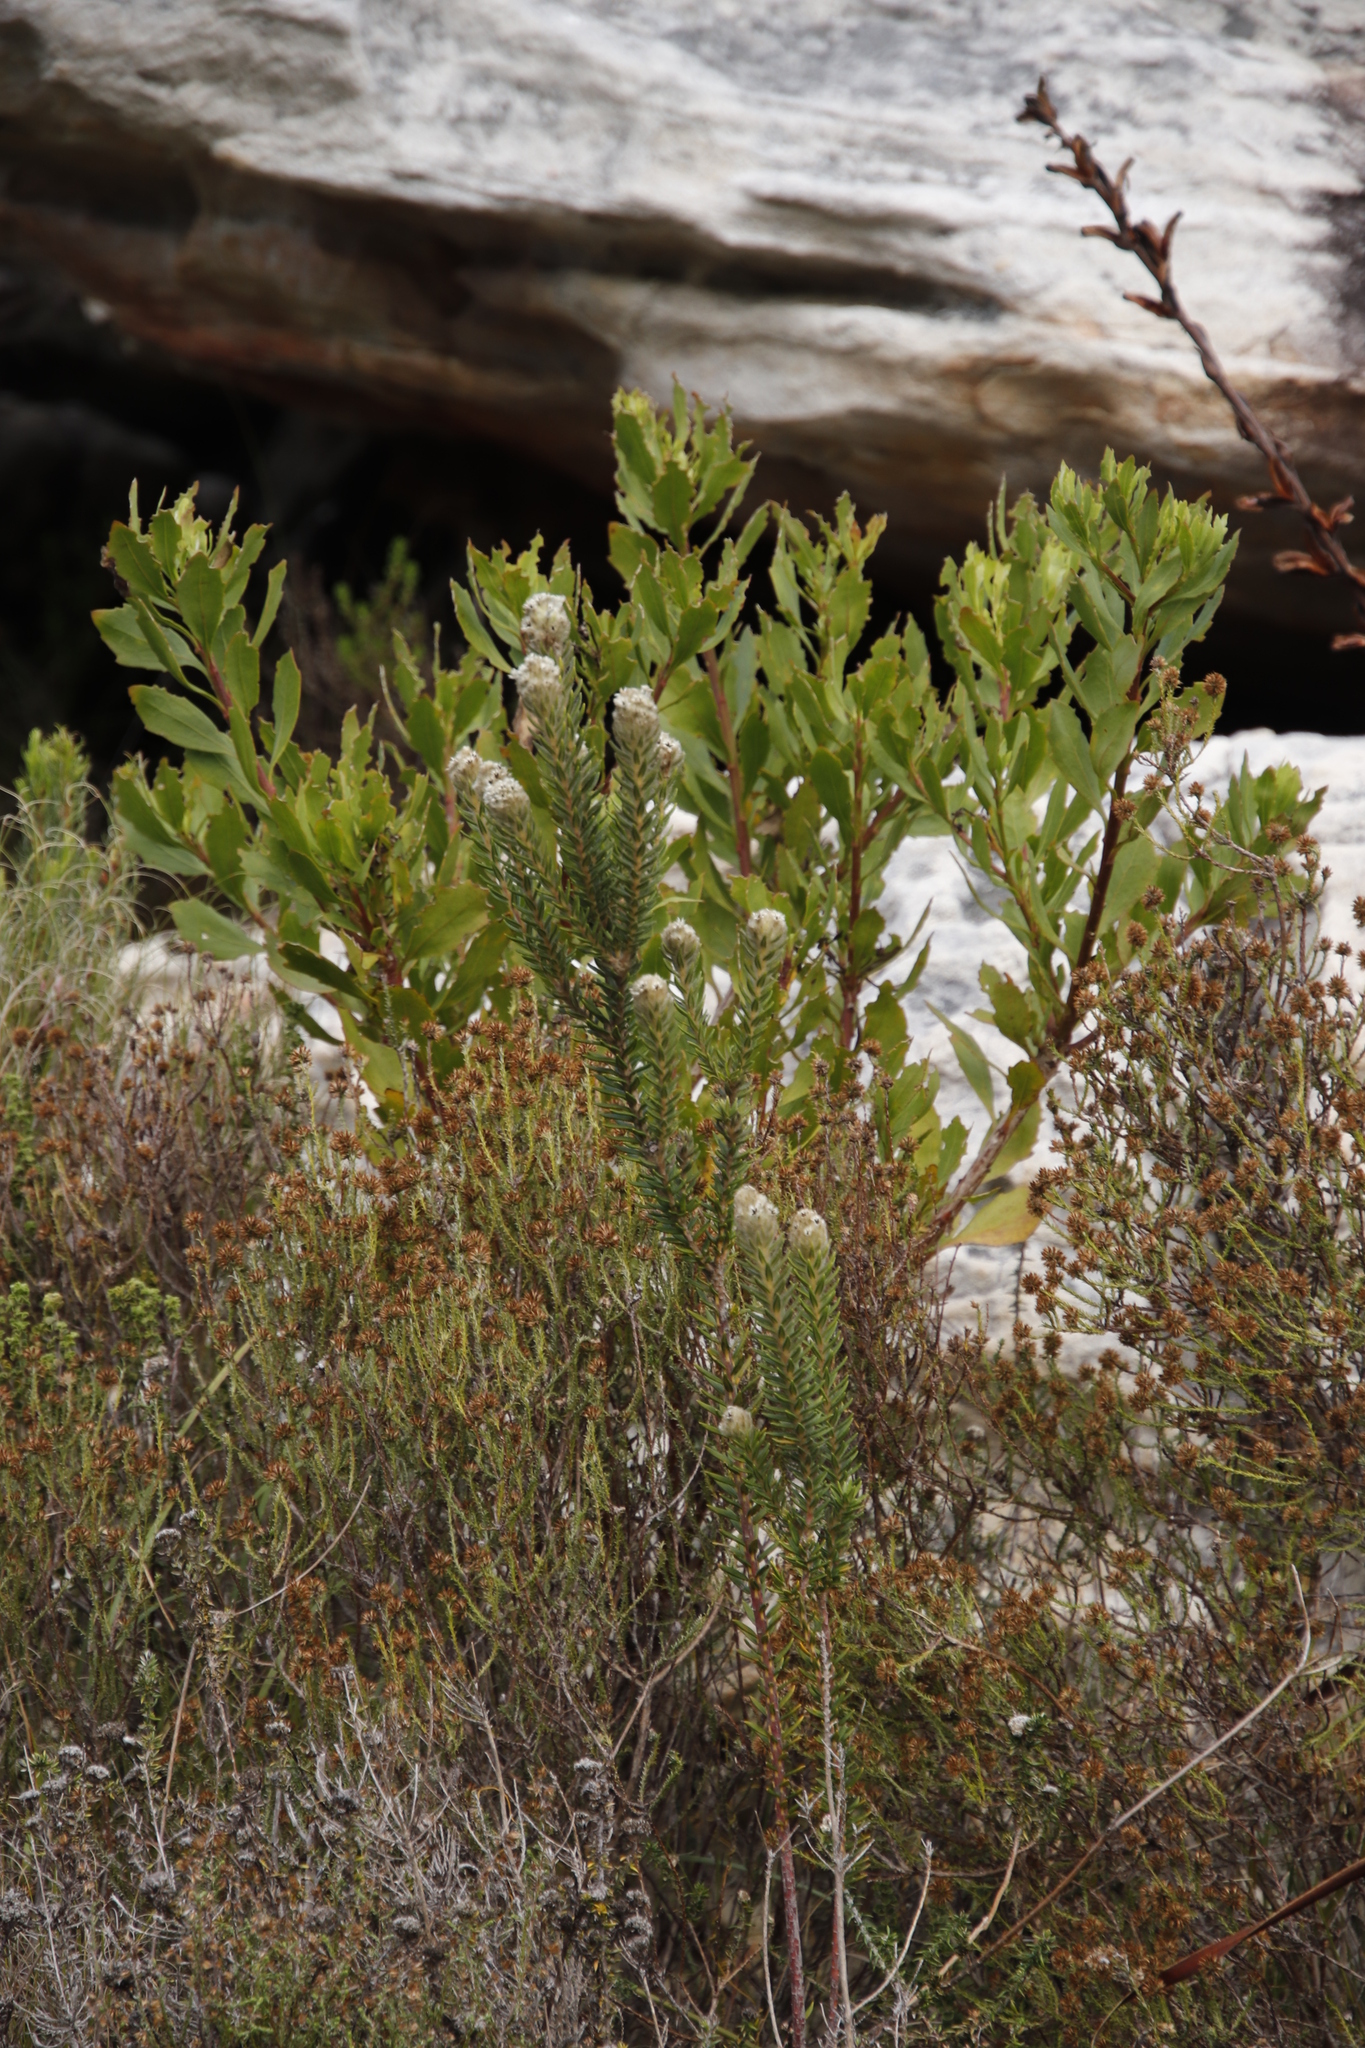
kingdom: Plantae
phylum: Tracheophyta
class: Magnoliopsida
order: Asterales
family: Asteraceae
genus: Osteospermum
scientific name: Osteospermum moniliferum
